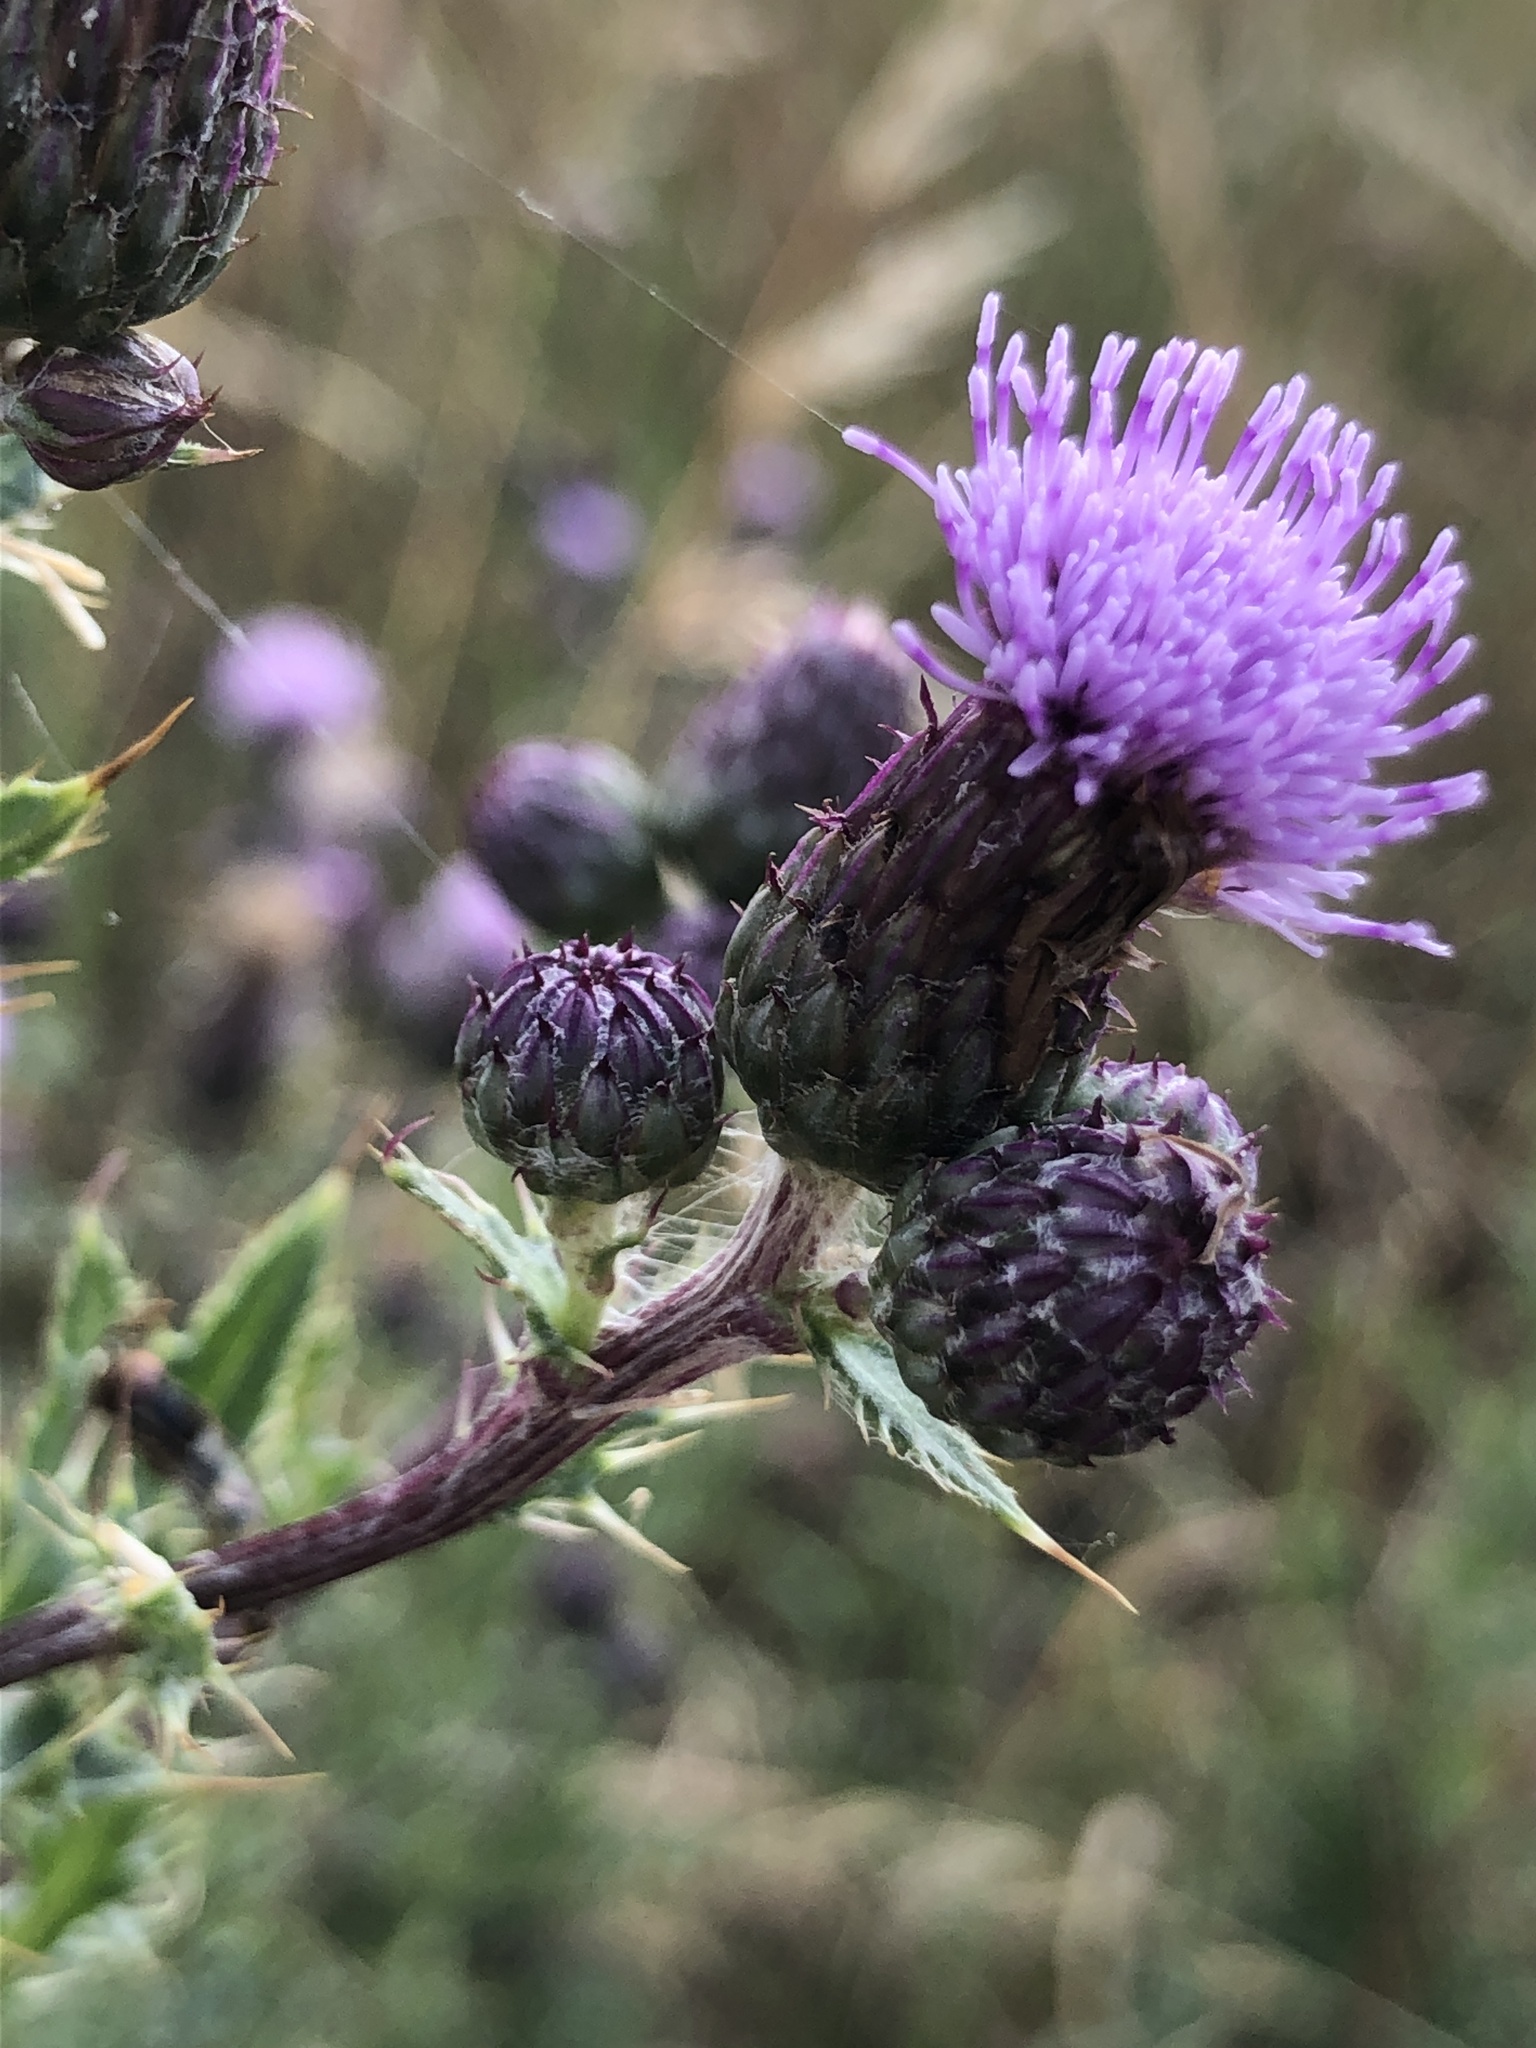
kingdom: Plantae
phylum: Tracheophyta
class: Magnoliopsida
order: Asterales
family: Asteraceae
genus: Cirsium
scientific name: Cirsium arvense
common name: Creeping thistle
